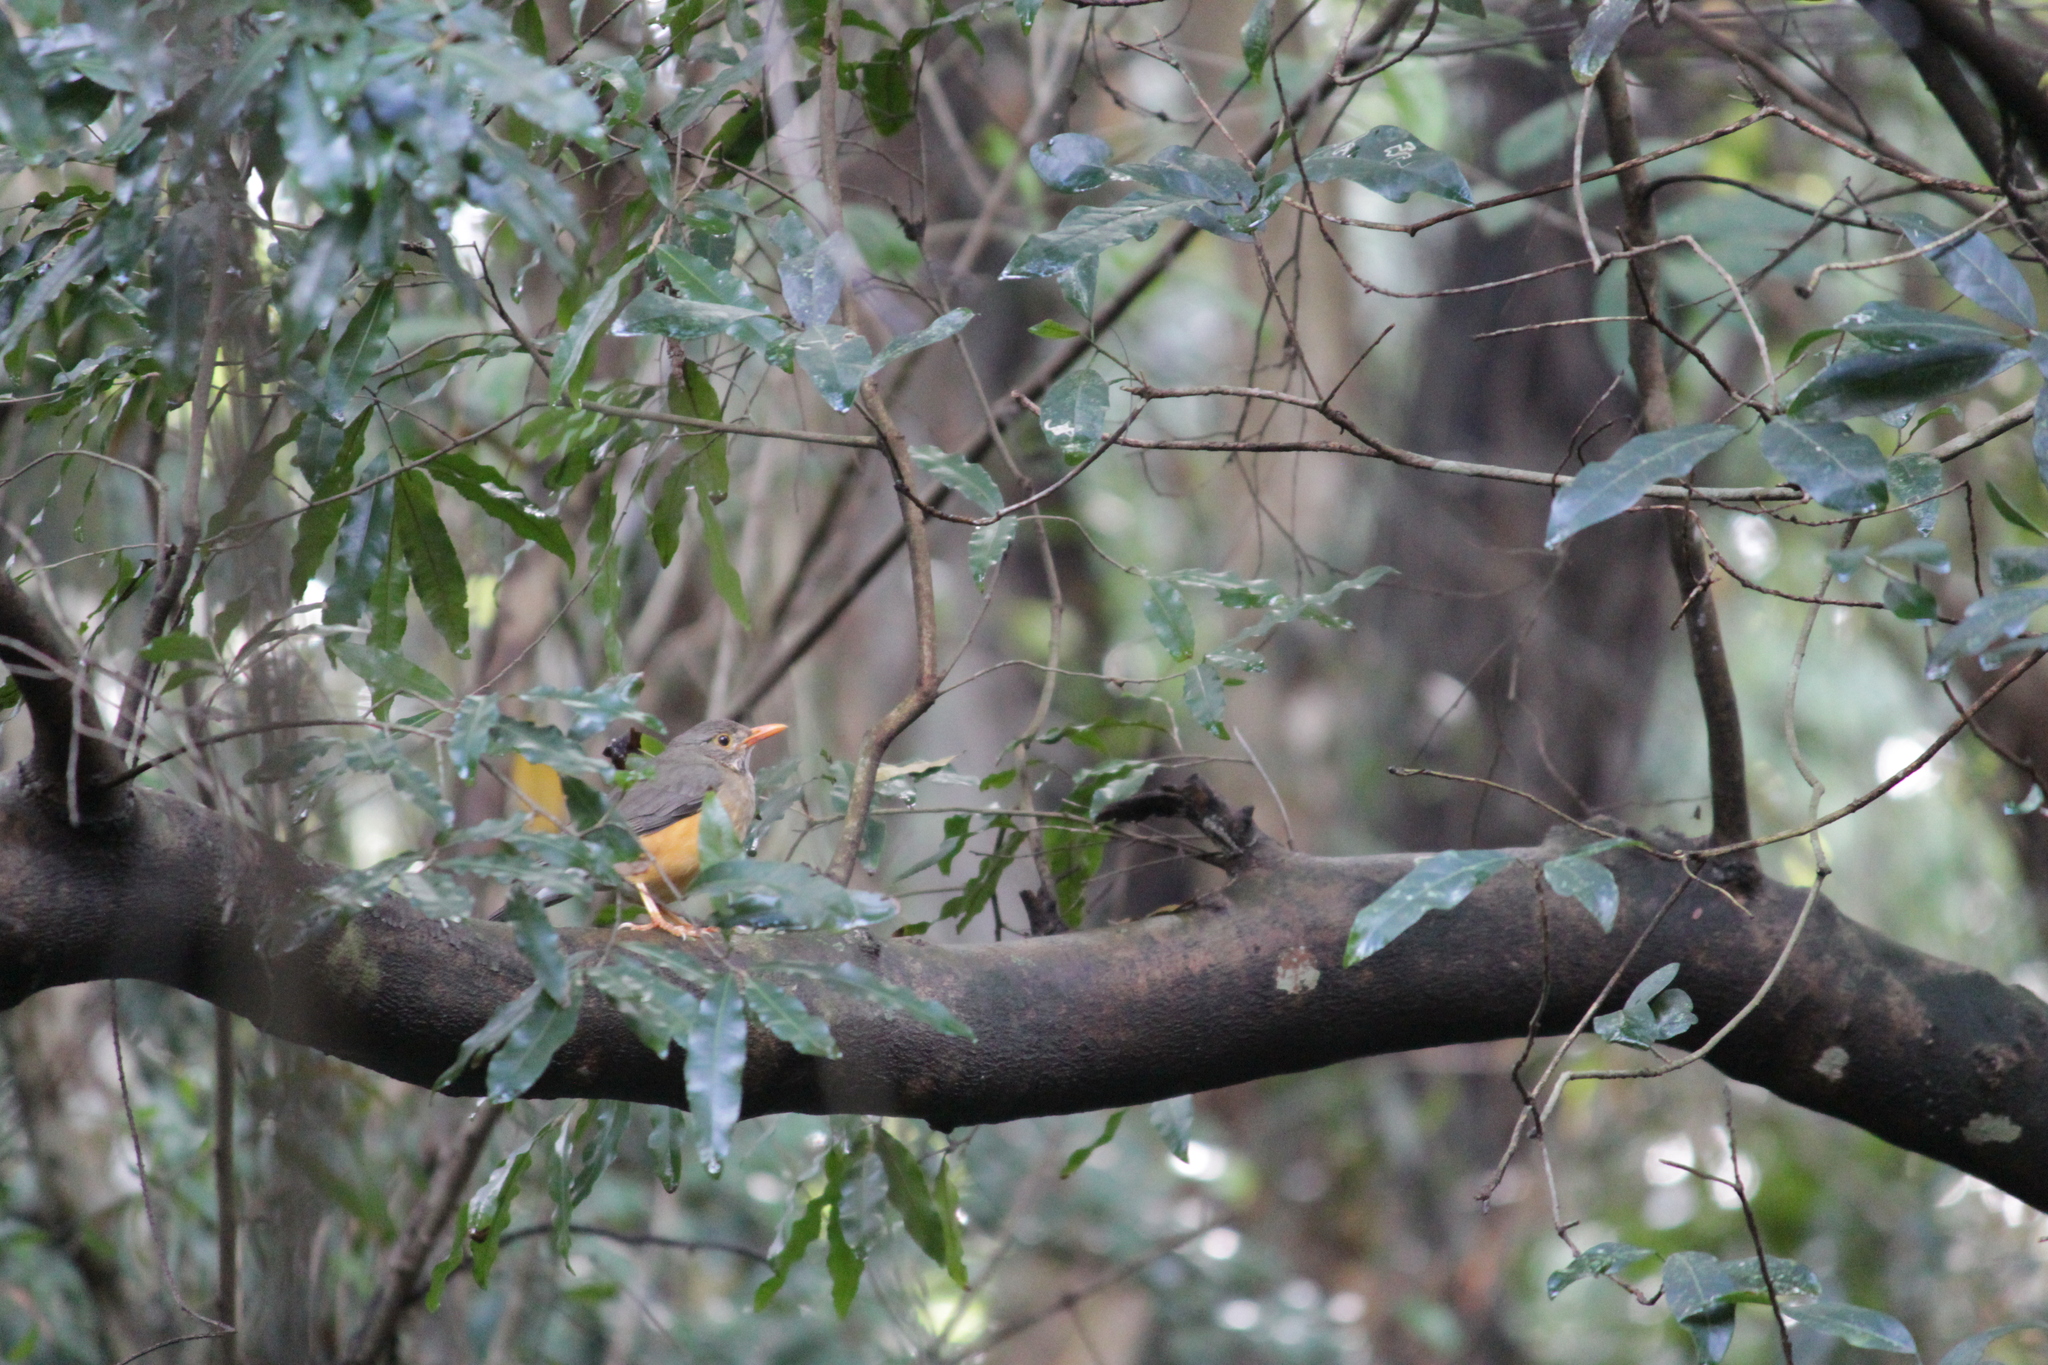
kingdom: Animalia
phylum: Chordata
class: Aves
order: Passeriformes
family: Turdidae
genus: Turdus
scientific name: Turdus libonyana
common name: Kurrichane thrush
